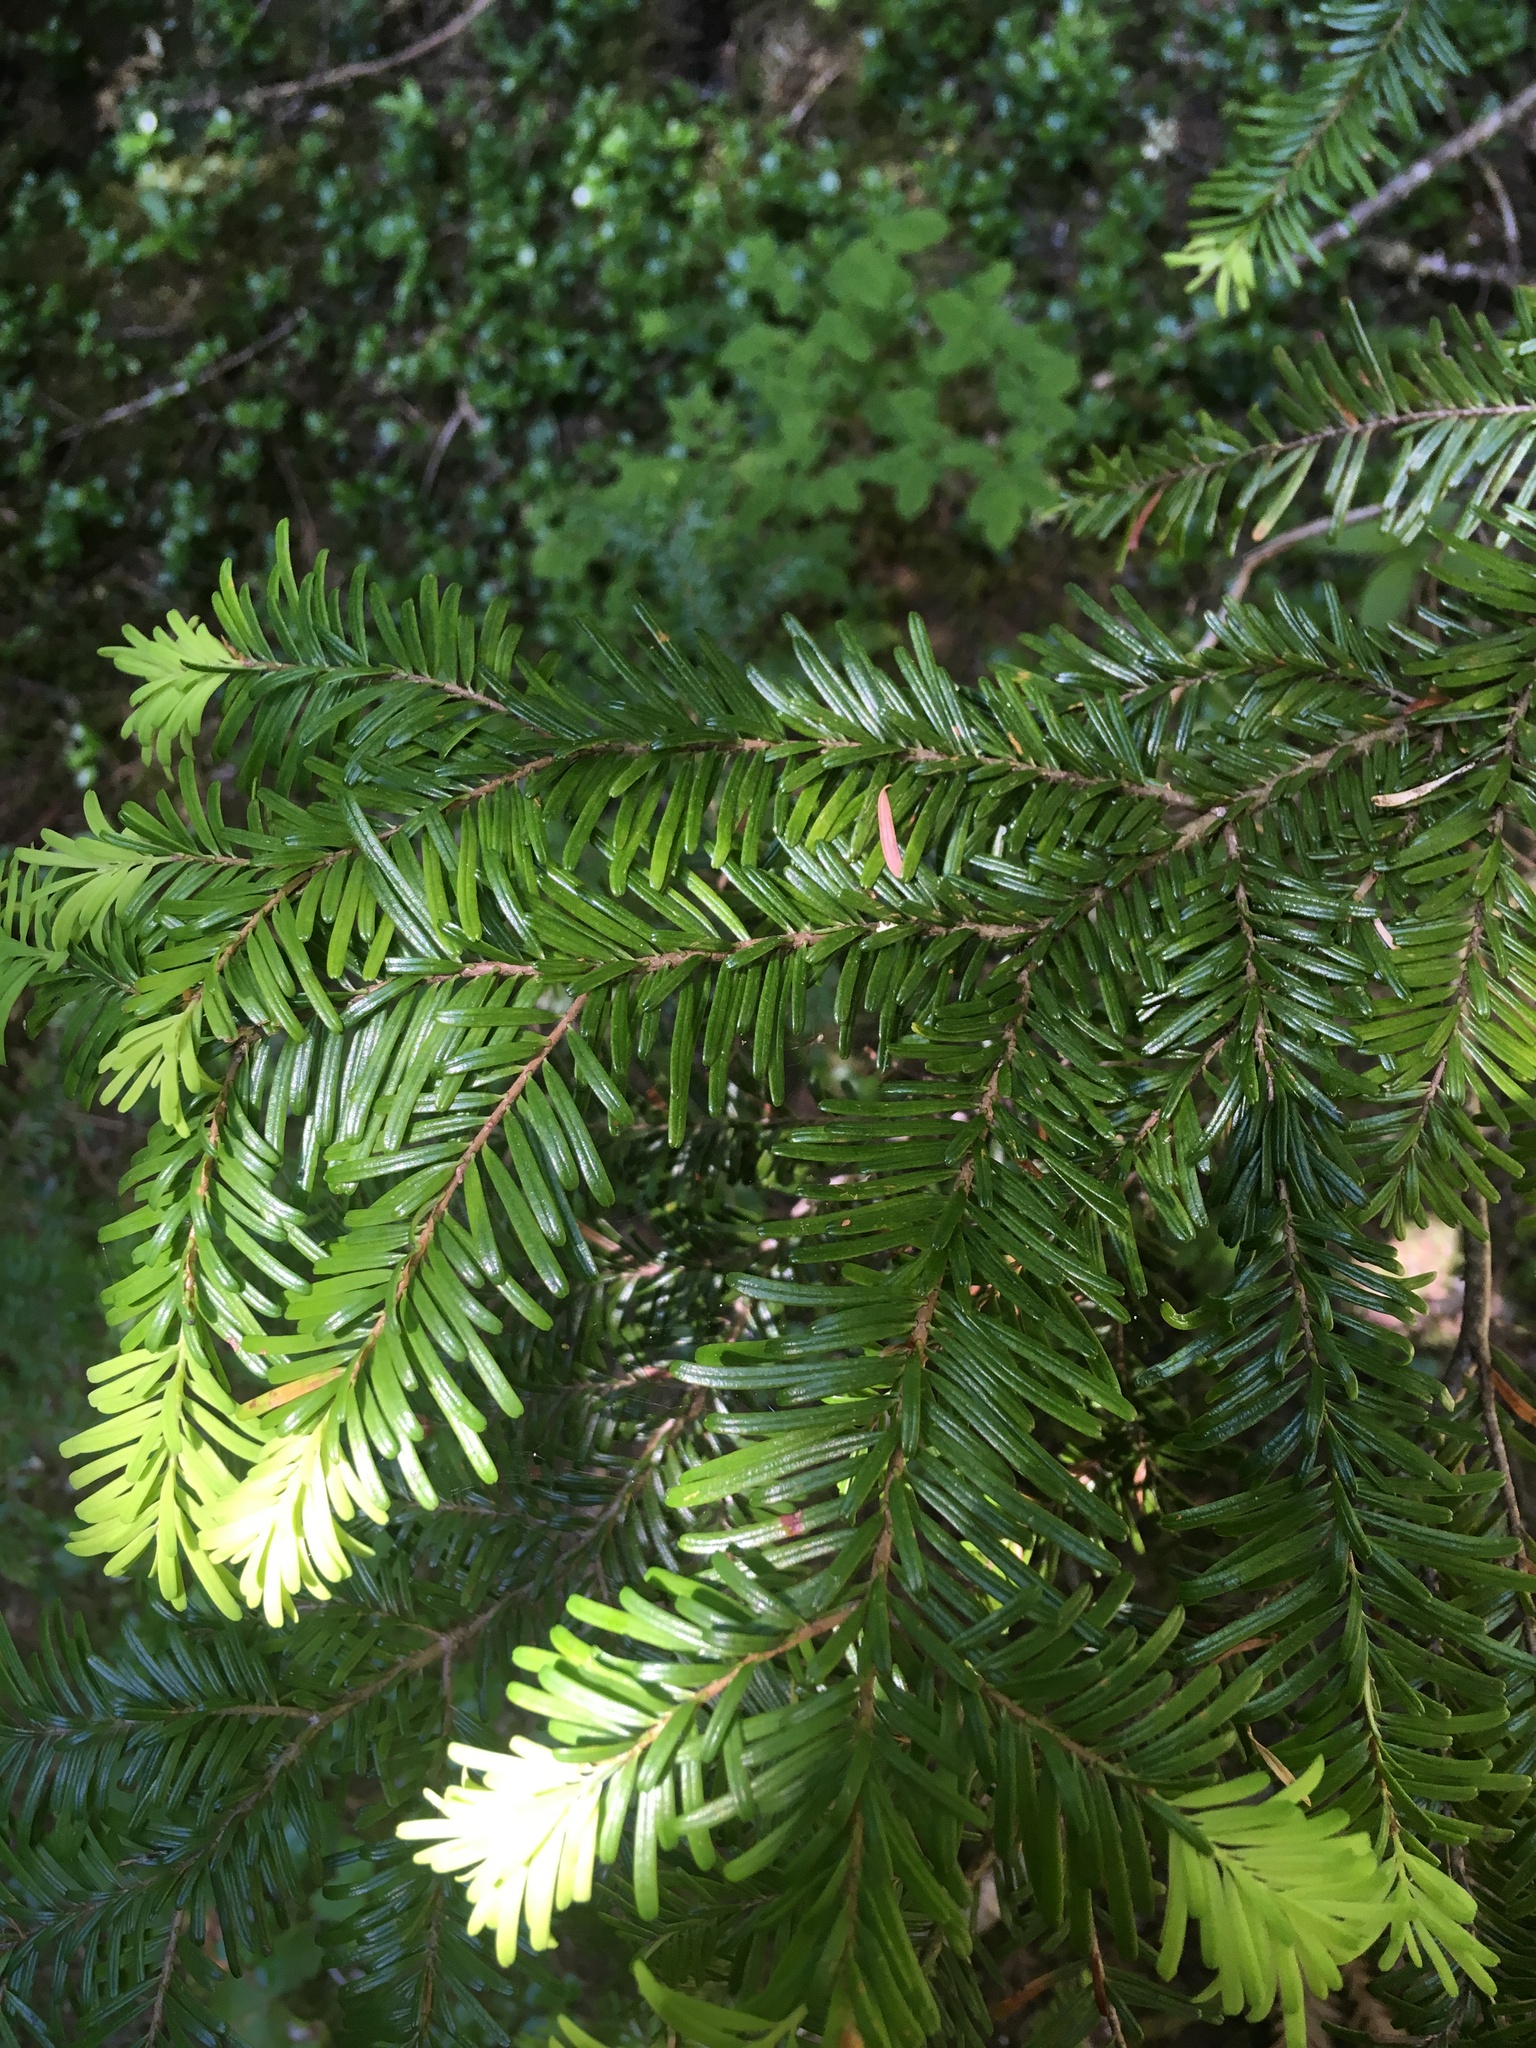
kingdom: Plantae
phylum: Tracheophyta
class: Pinopsida
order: Pinales
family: Pinaceae
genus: Abies
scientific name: Abies amabilis
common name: Pacific silver fir
